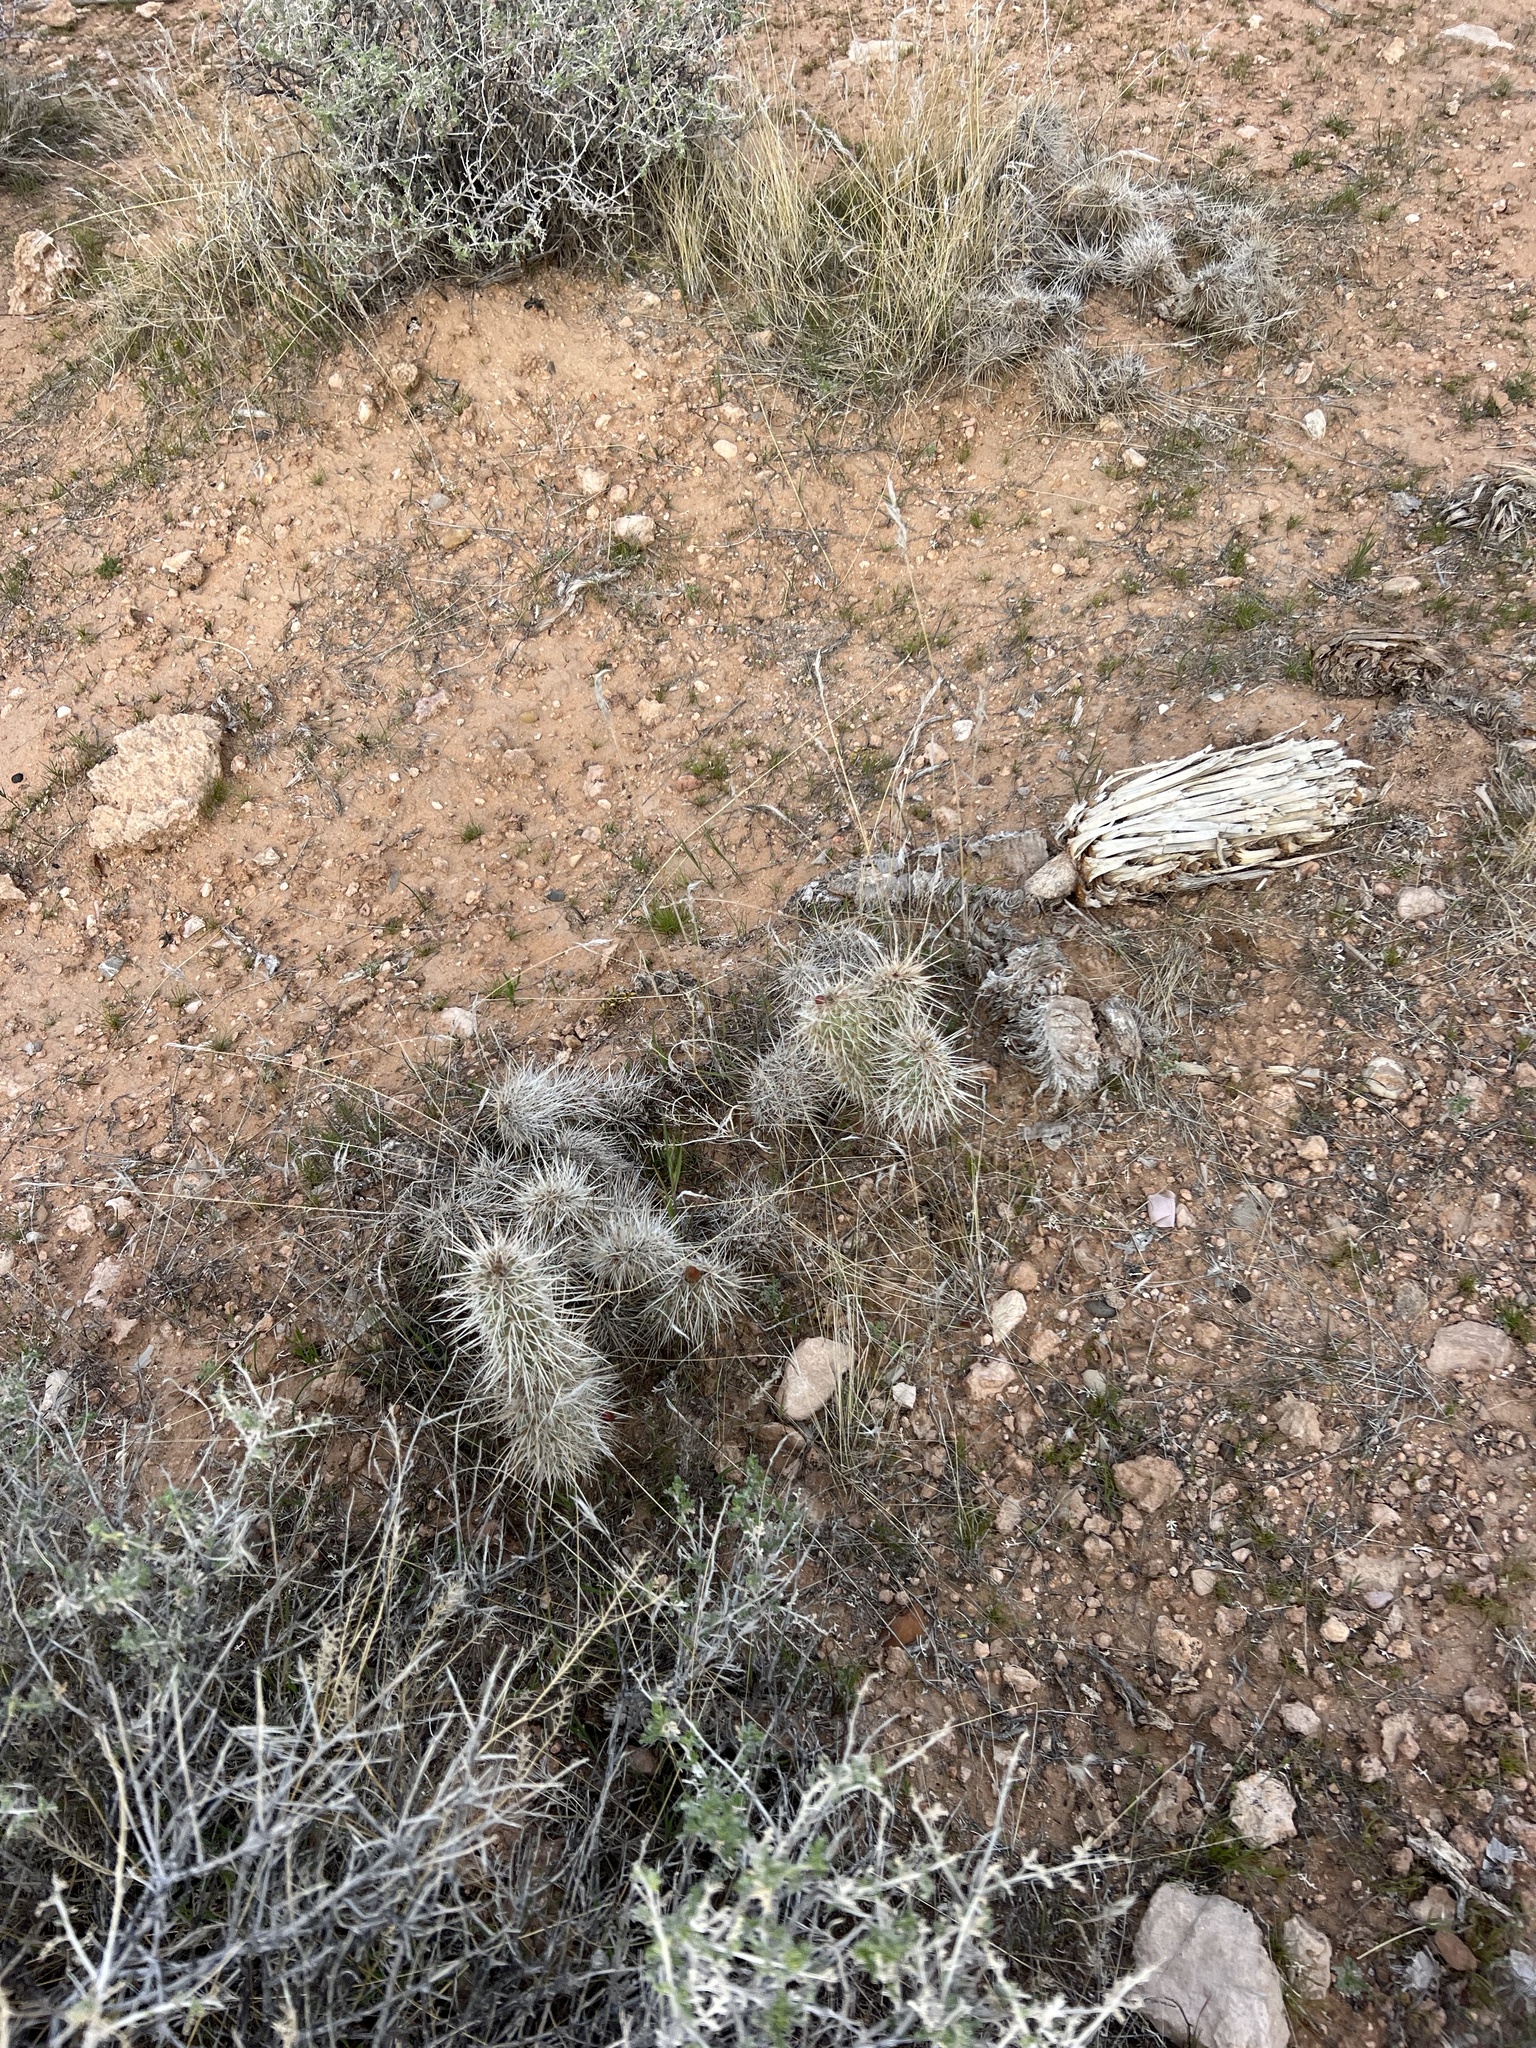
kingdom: Plantae
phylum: Tracheophyta
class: Magnoliopsida
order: Caryophyllales
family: Cactaceae
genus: Opuntia
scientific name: Opuntia polyacantha
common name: Plains prickly-pear
